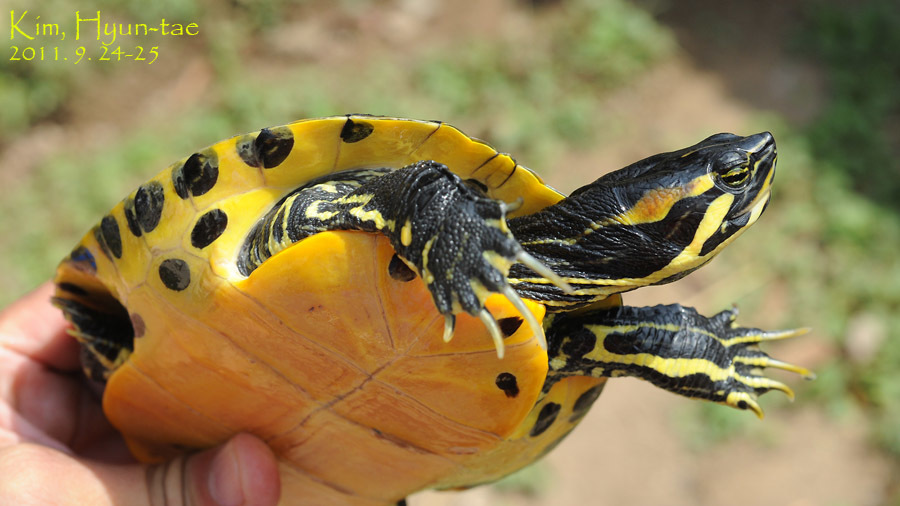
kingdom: Animalia
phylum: Chordata
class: Testudines
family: Emydidae
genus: Trachemys
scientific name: Trachemys scripta
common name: Slider
